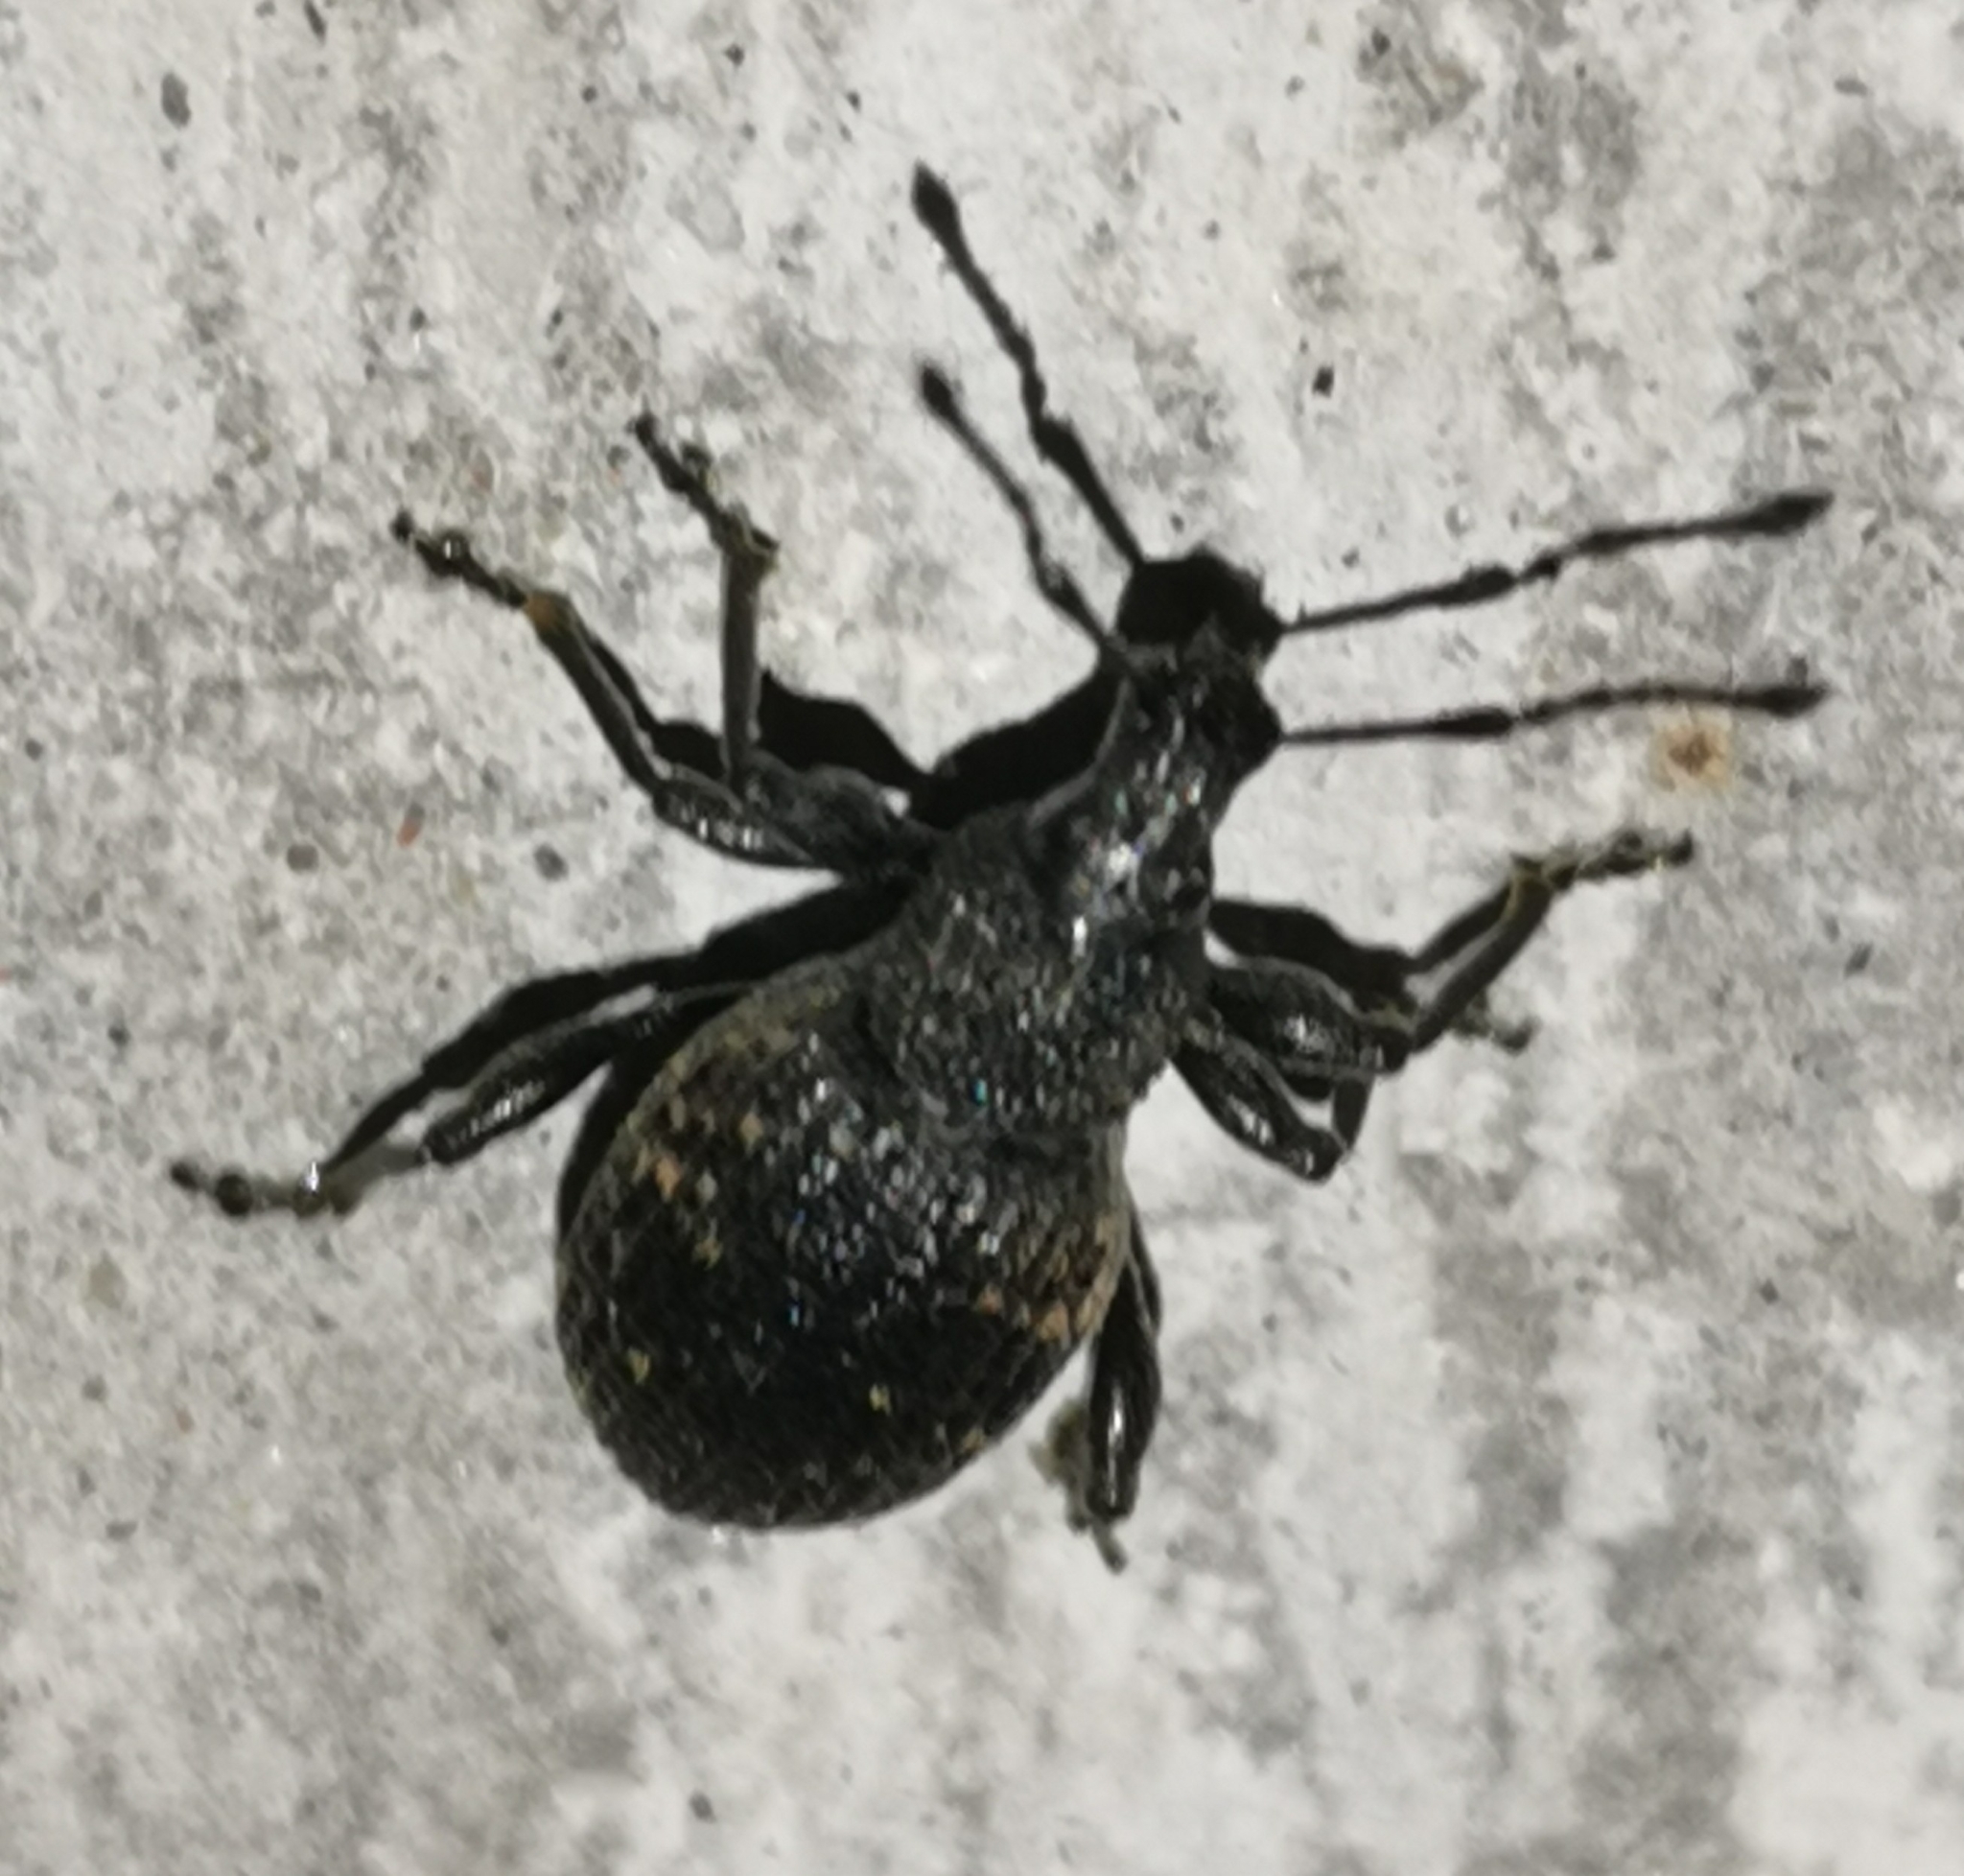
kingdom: Animalia
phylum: Arthropoda
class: Insecta
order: Coleoptera
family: Curculionidae
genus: Otiorhynchus
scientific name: Otiorhynchus sulcatus
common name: Black vine weevil
